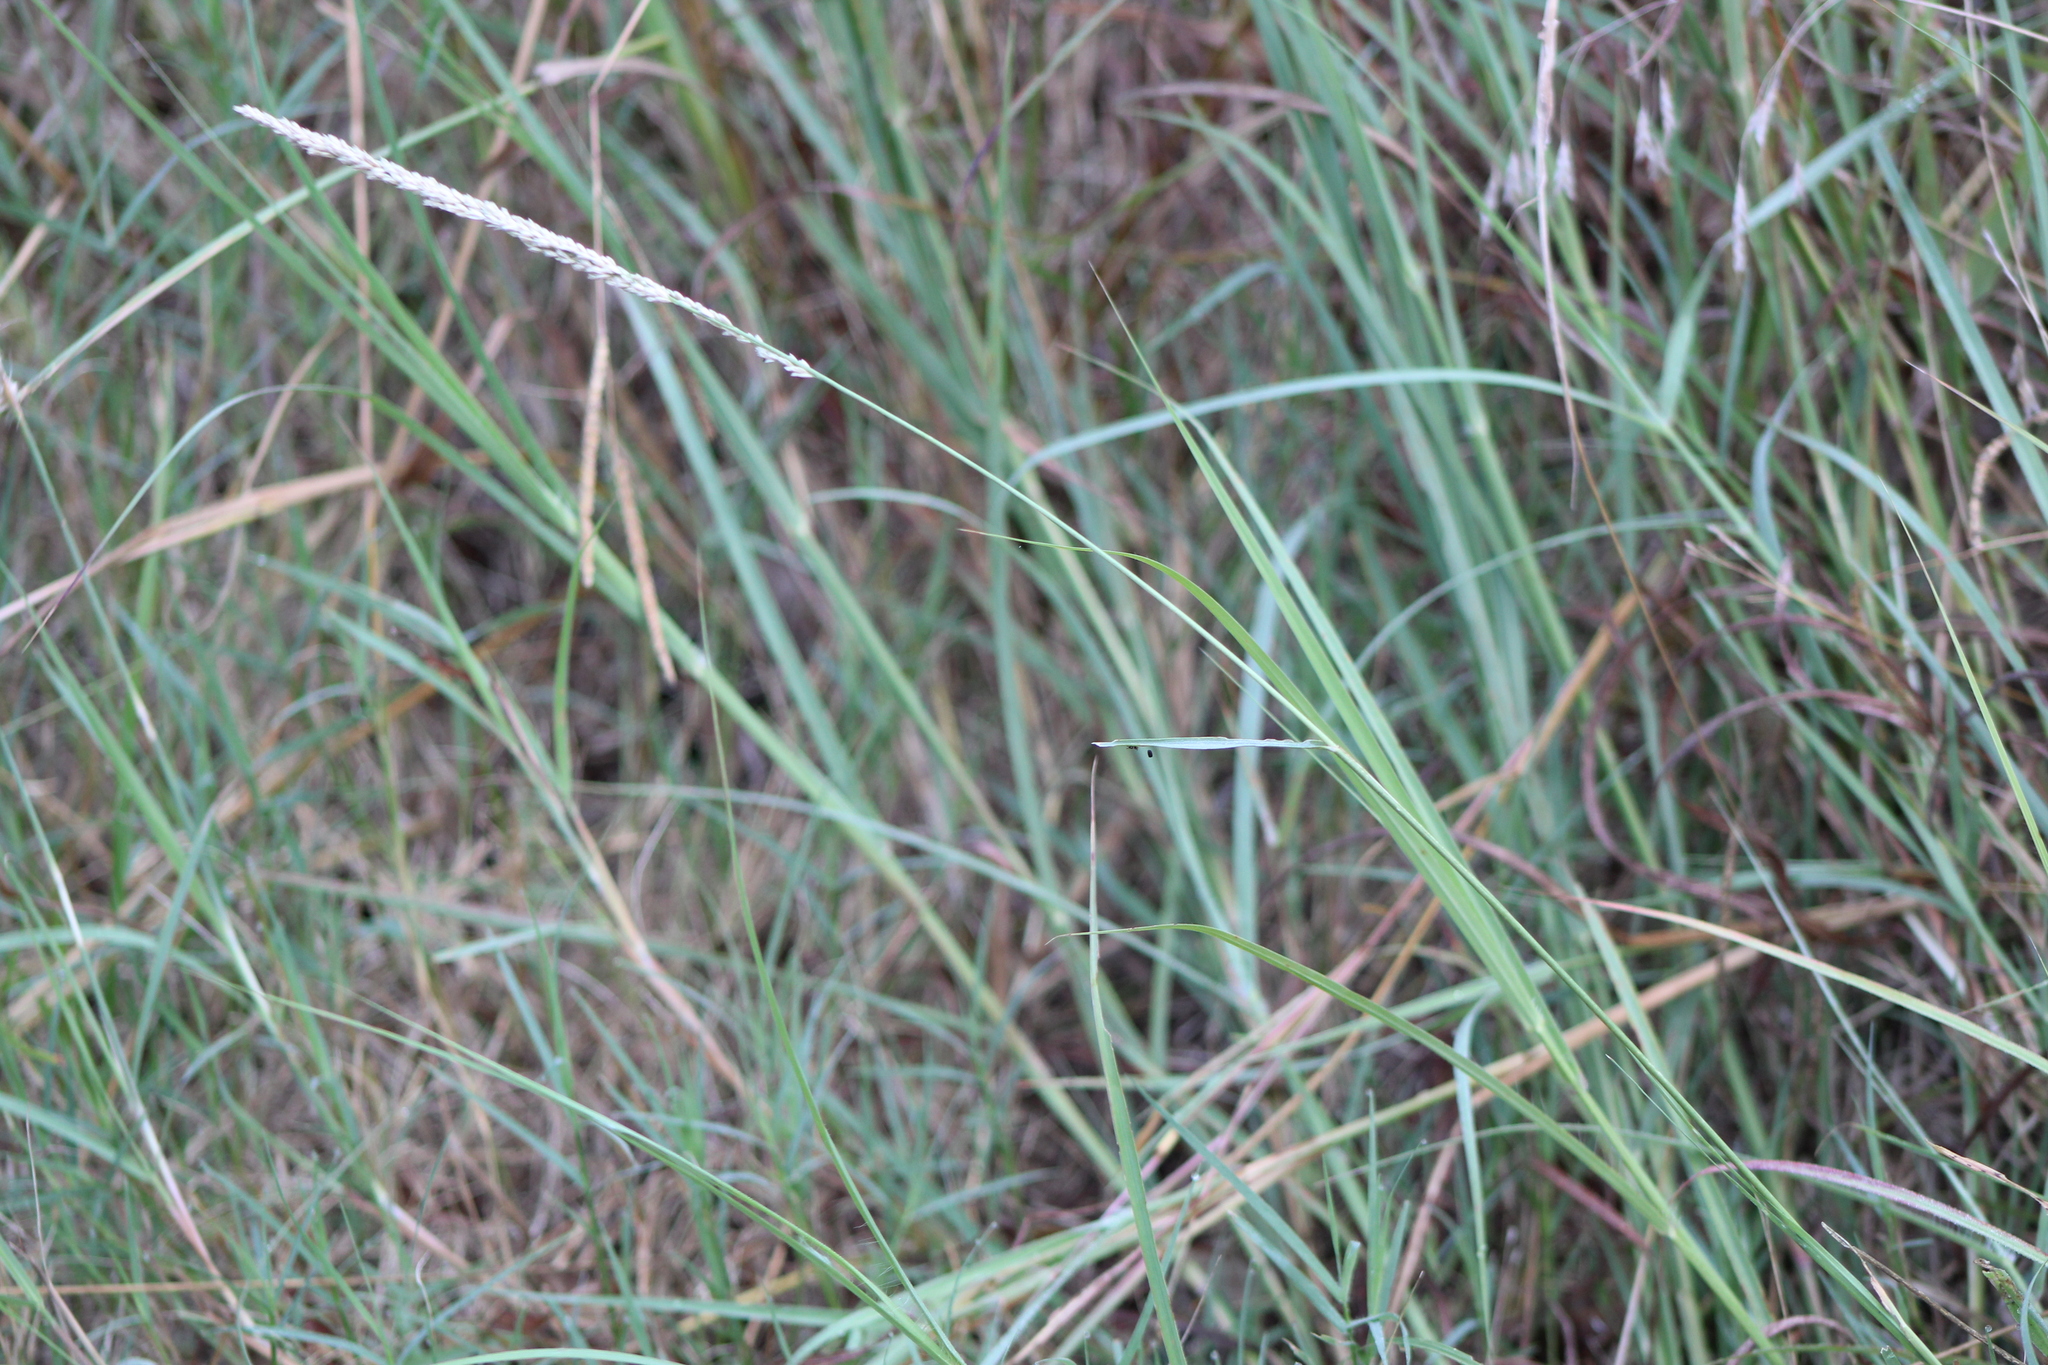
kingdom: Plantae
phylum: Tracheophyta
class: Liliopsida
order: Poales
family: Poaceae
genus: Tridens
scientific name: Tridens albescens
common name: White tridens
